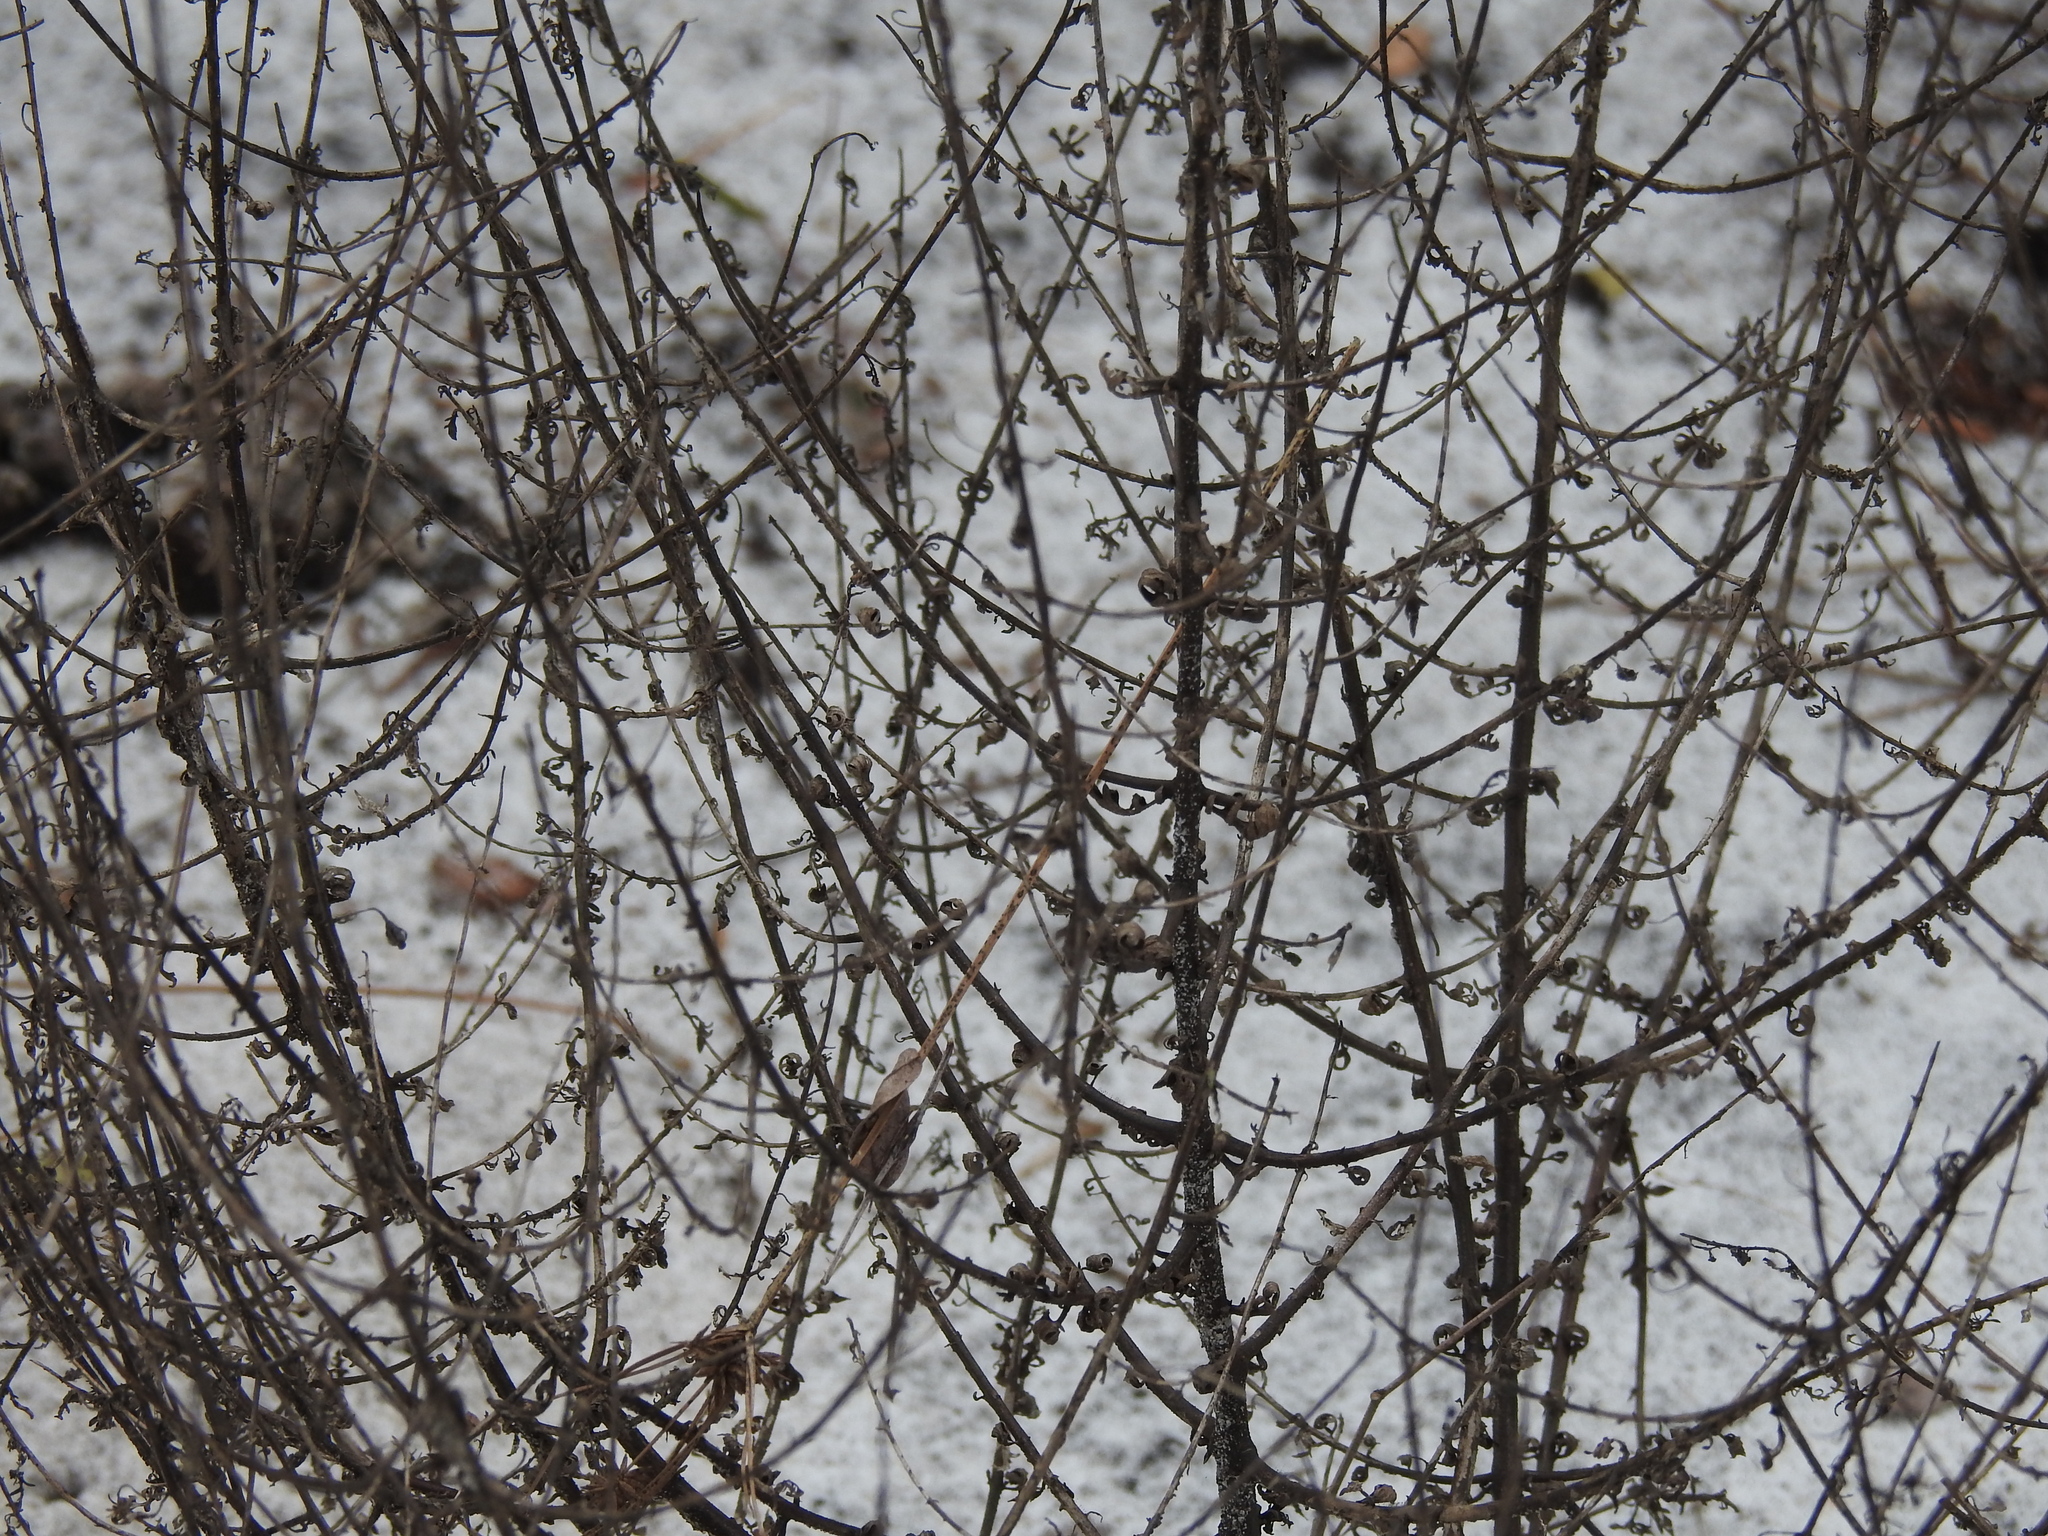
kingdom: Plantae
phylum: Tracheophyta
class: Magnoliopsida
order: Lamiales
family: Orobanchaceae
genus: Seymeria
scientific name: Seymeria pectinata
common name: Piedmont black-senna
